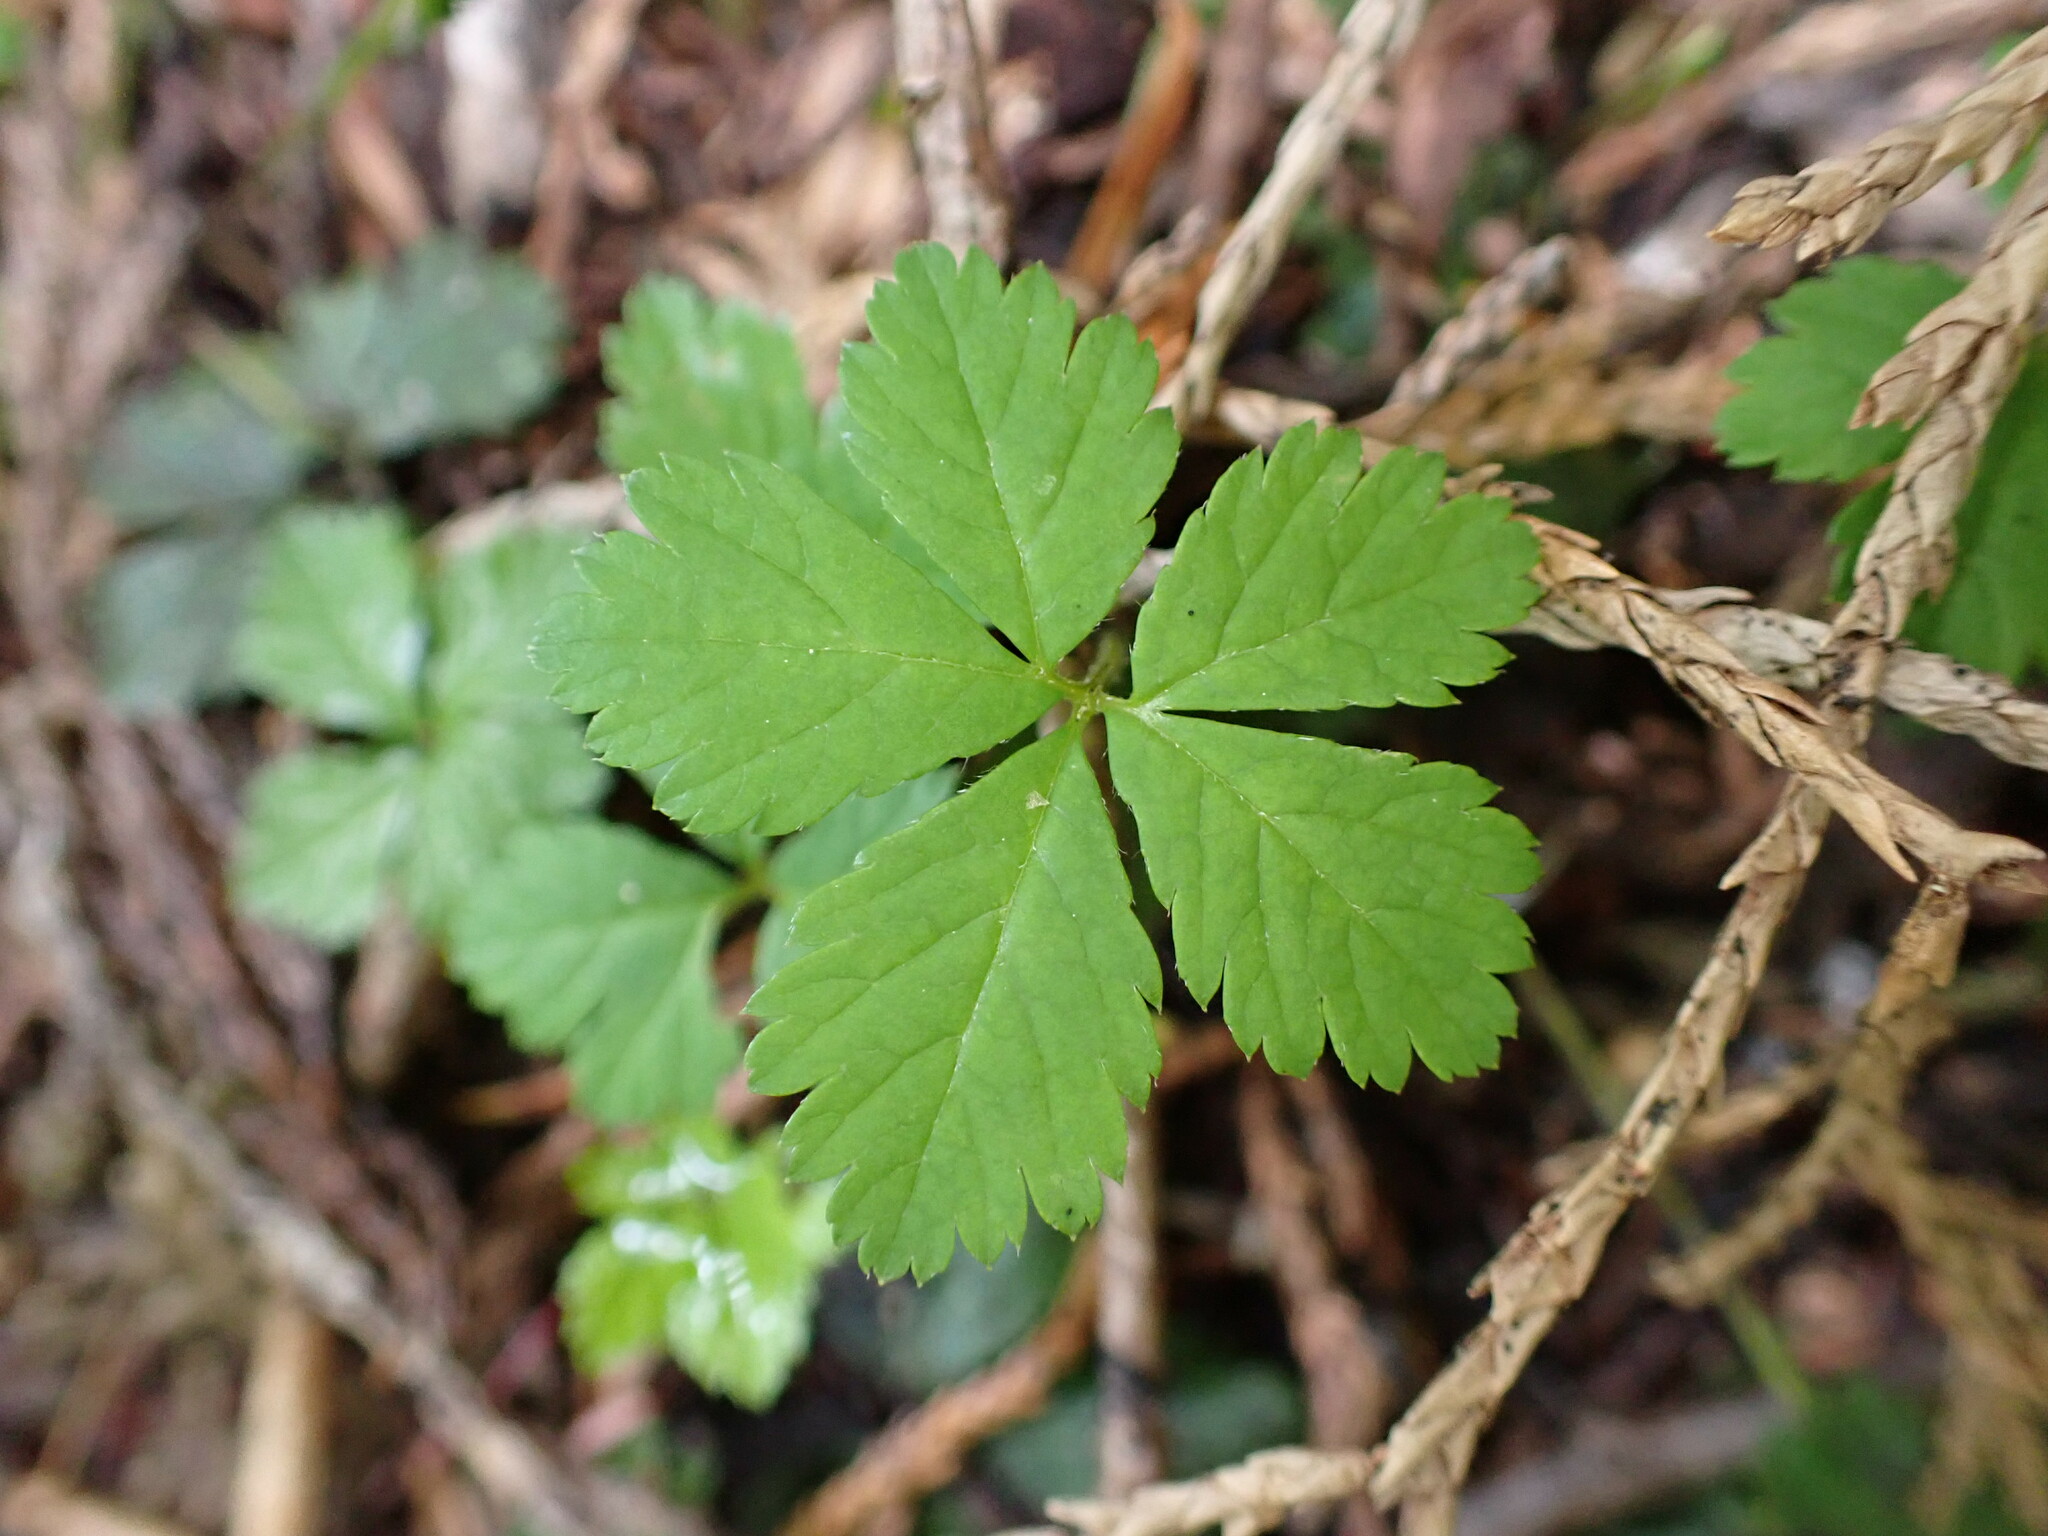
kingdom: Plantae
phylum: Tracheophyta
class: Magnoliopsida
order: Rosales
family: Rosaceae
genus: Rubus
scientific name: Rubus pedatus
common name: Creeping raspberry
